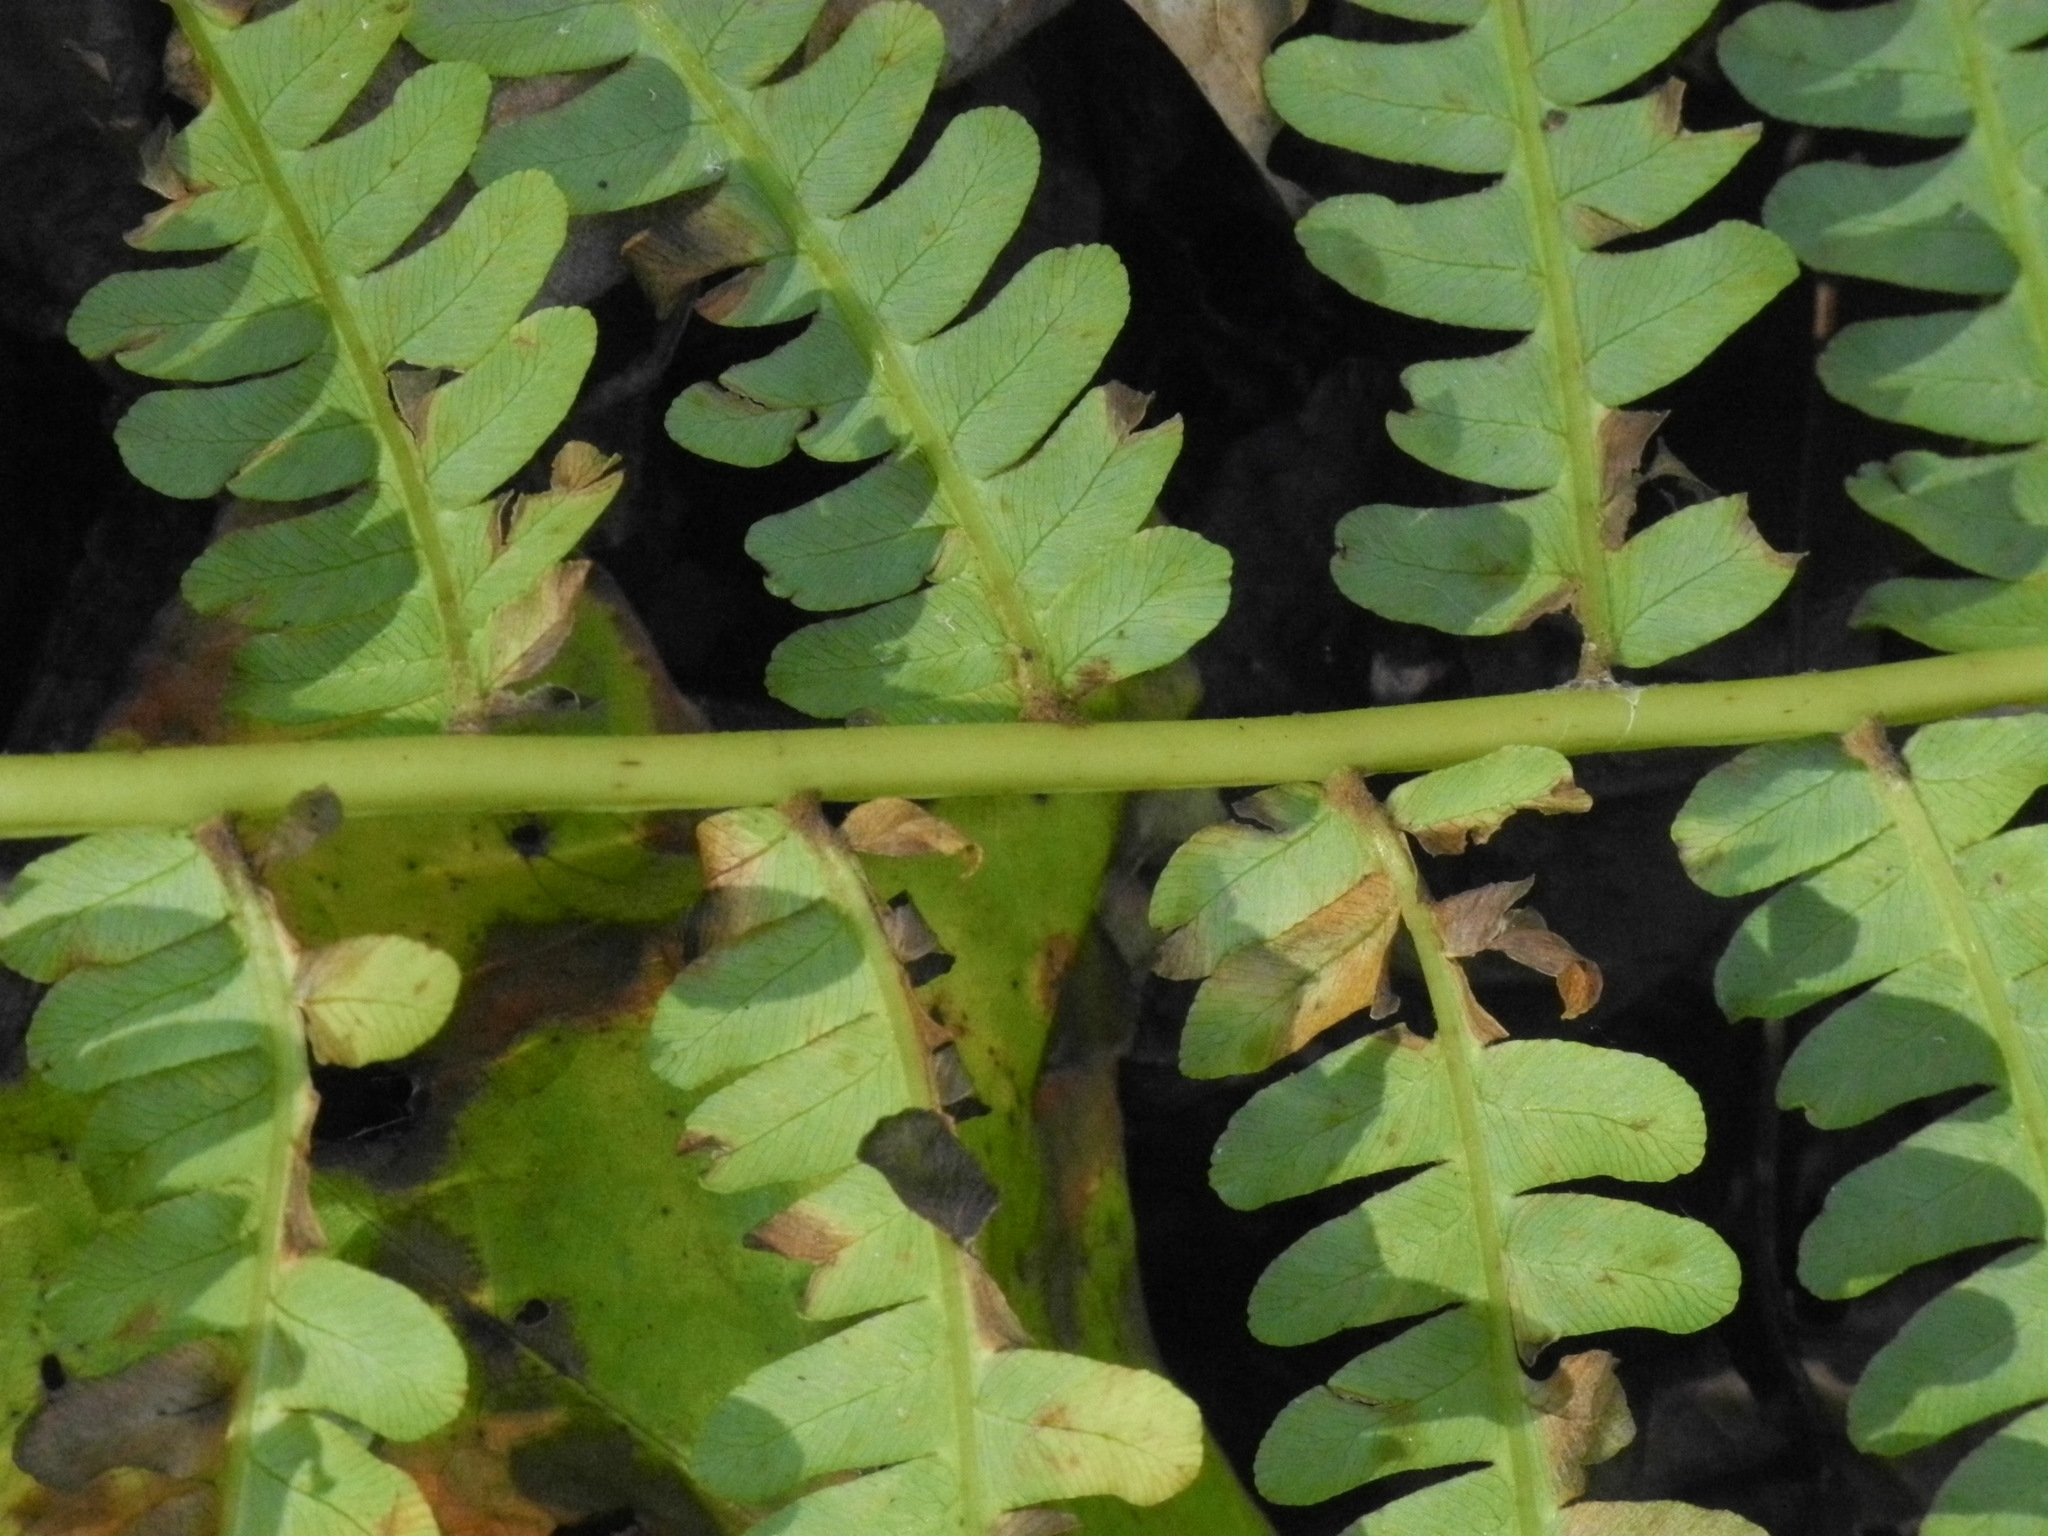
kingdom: Plantae
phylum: Tracheophyta
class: Polypodiopsida
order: Osmundales
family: Osmundaceae
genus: Osmundastrum
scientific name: Osmundastrum cinnamomeum
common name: Cinnamon fern
